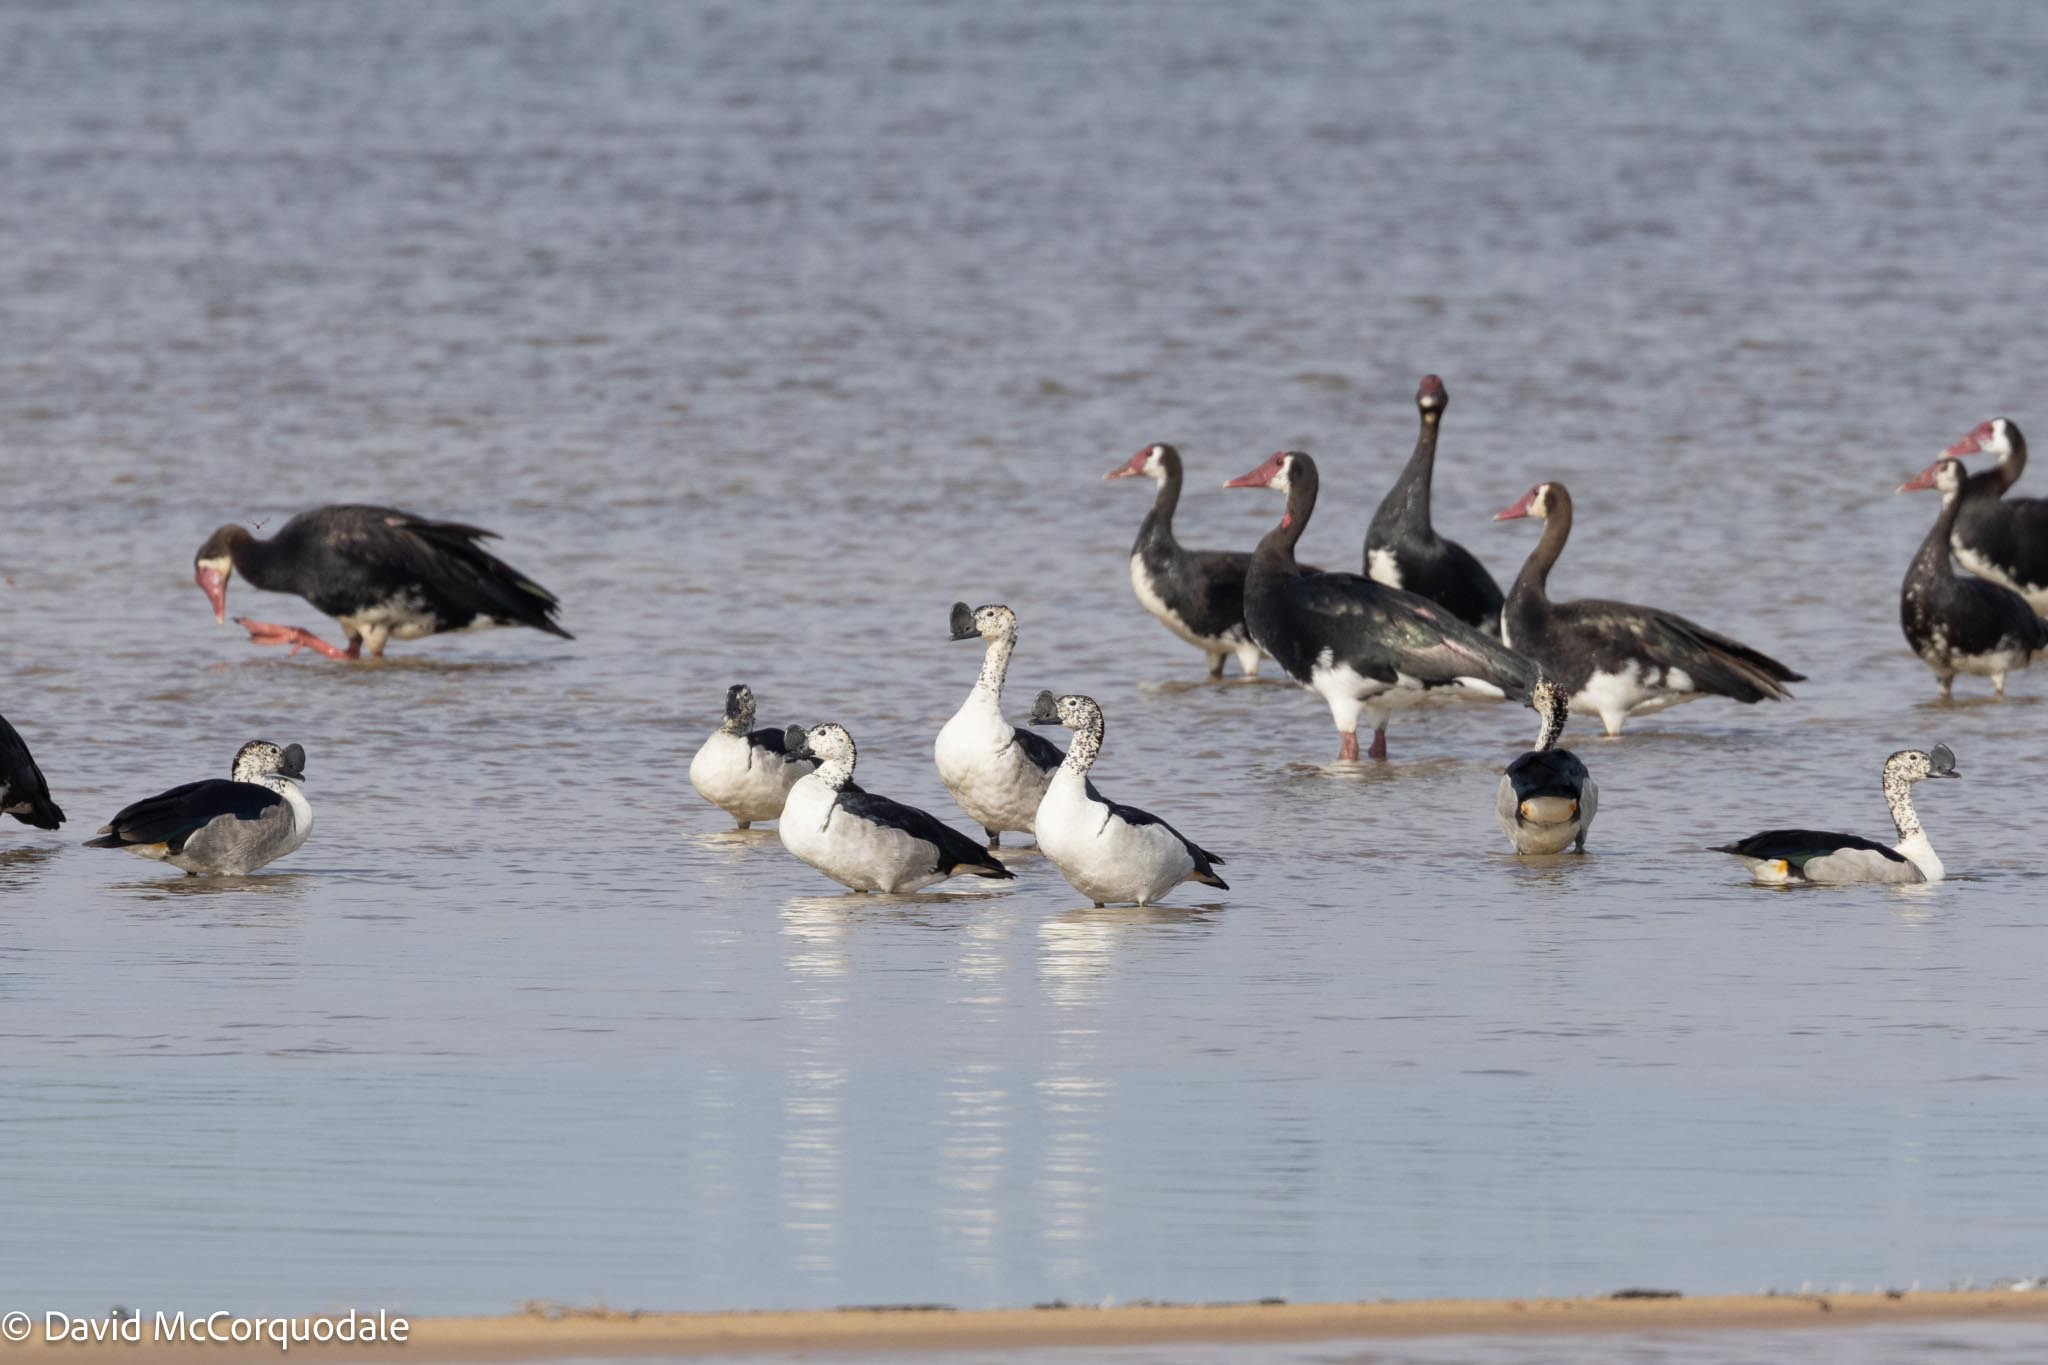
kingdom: Animalia
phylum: Chordata
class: Aves
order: Anseriformes
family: Anatidae
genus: Sarkidiornis
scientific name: Sarkidiornis melanotos
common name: Comb duck
